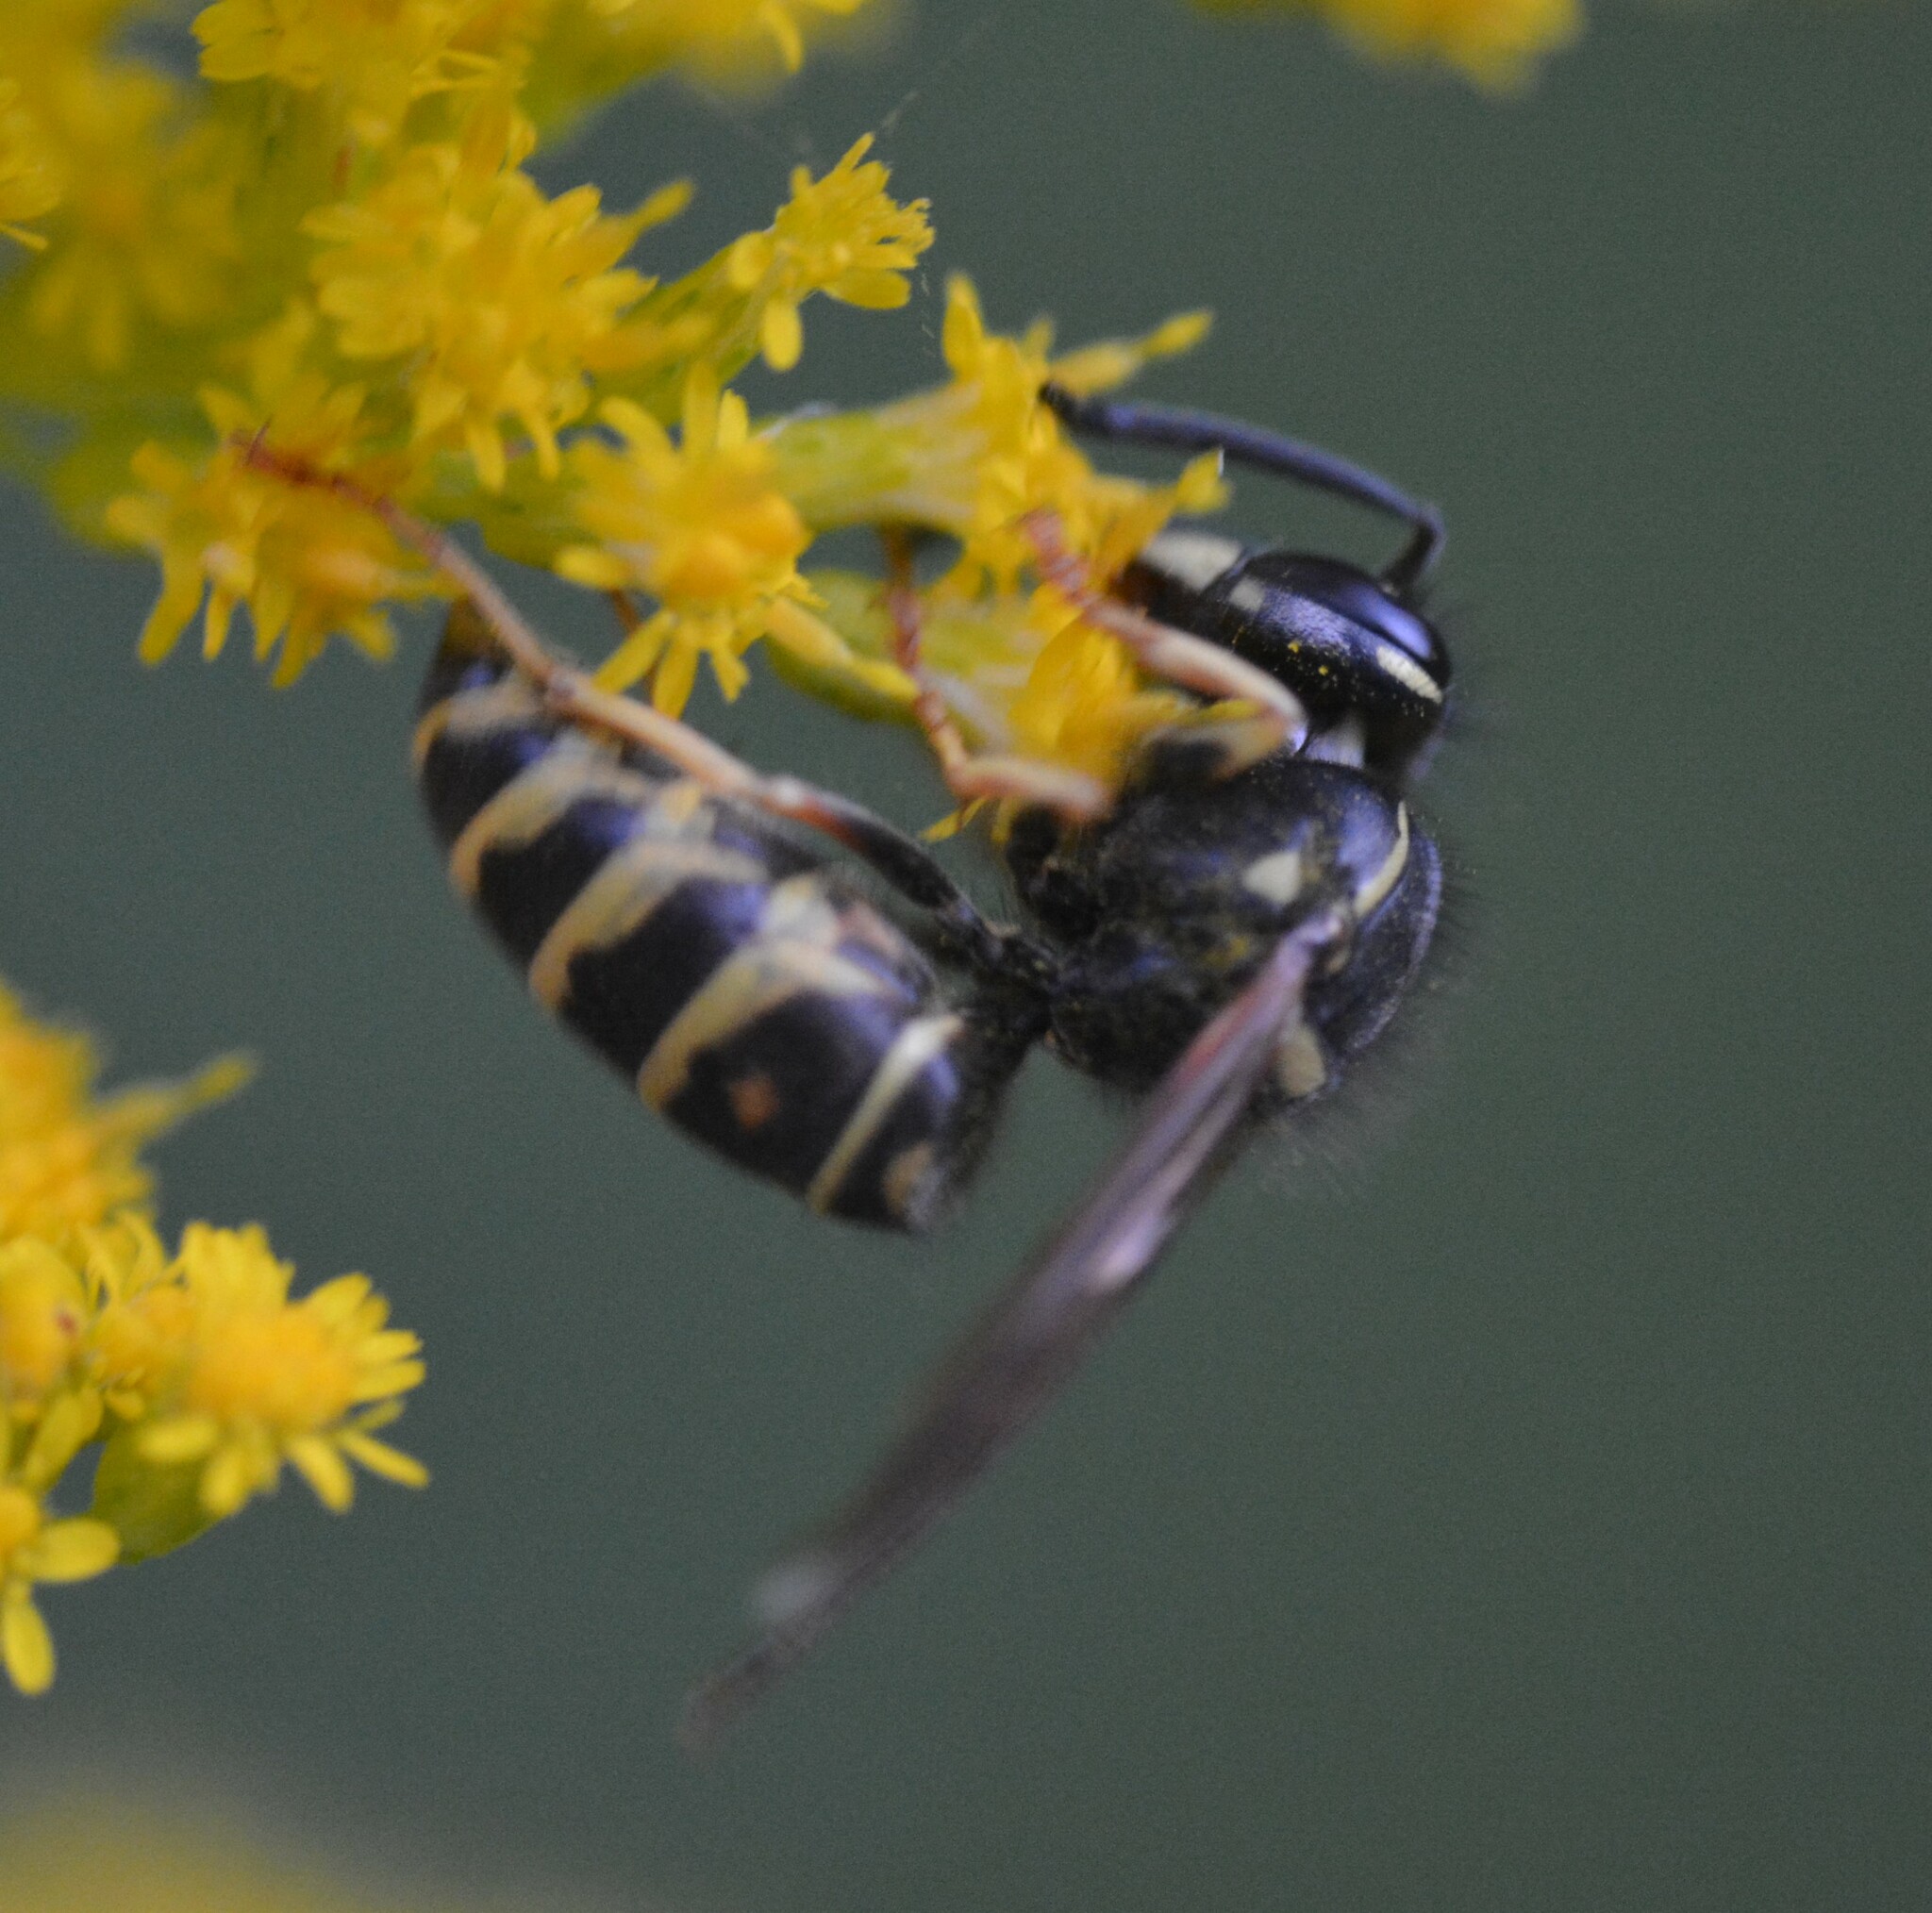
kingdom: Animalia
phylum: Arthropoda
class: Insecta
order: Hymenoptera
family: Vespidae
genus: Vespula
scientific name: Vespula acadica
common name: Forest yellowjacket
